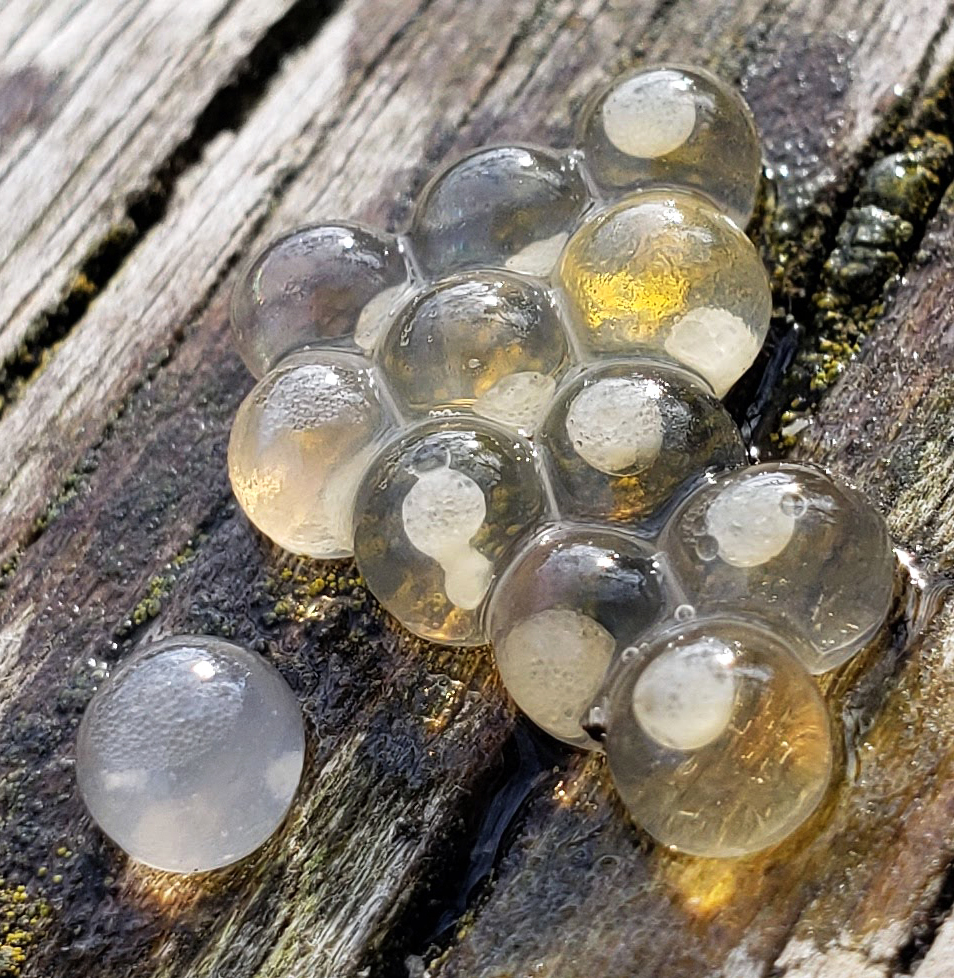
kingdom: Animalia
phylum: Chordata
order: Salmoniformes
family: Salmonidae
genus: Salvelinus
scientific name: Salvelinus fontinalis
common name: Brook trout
